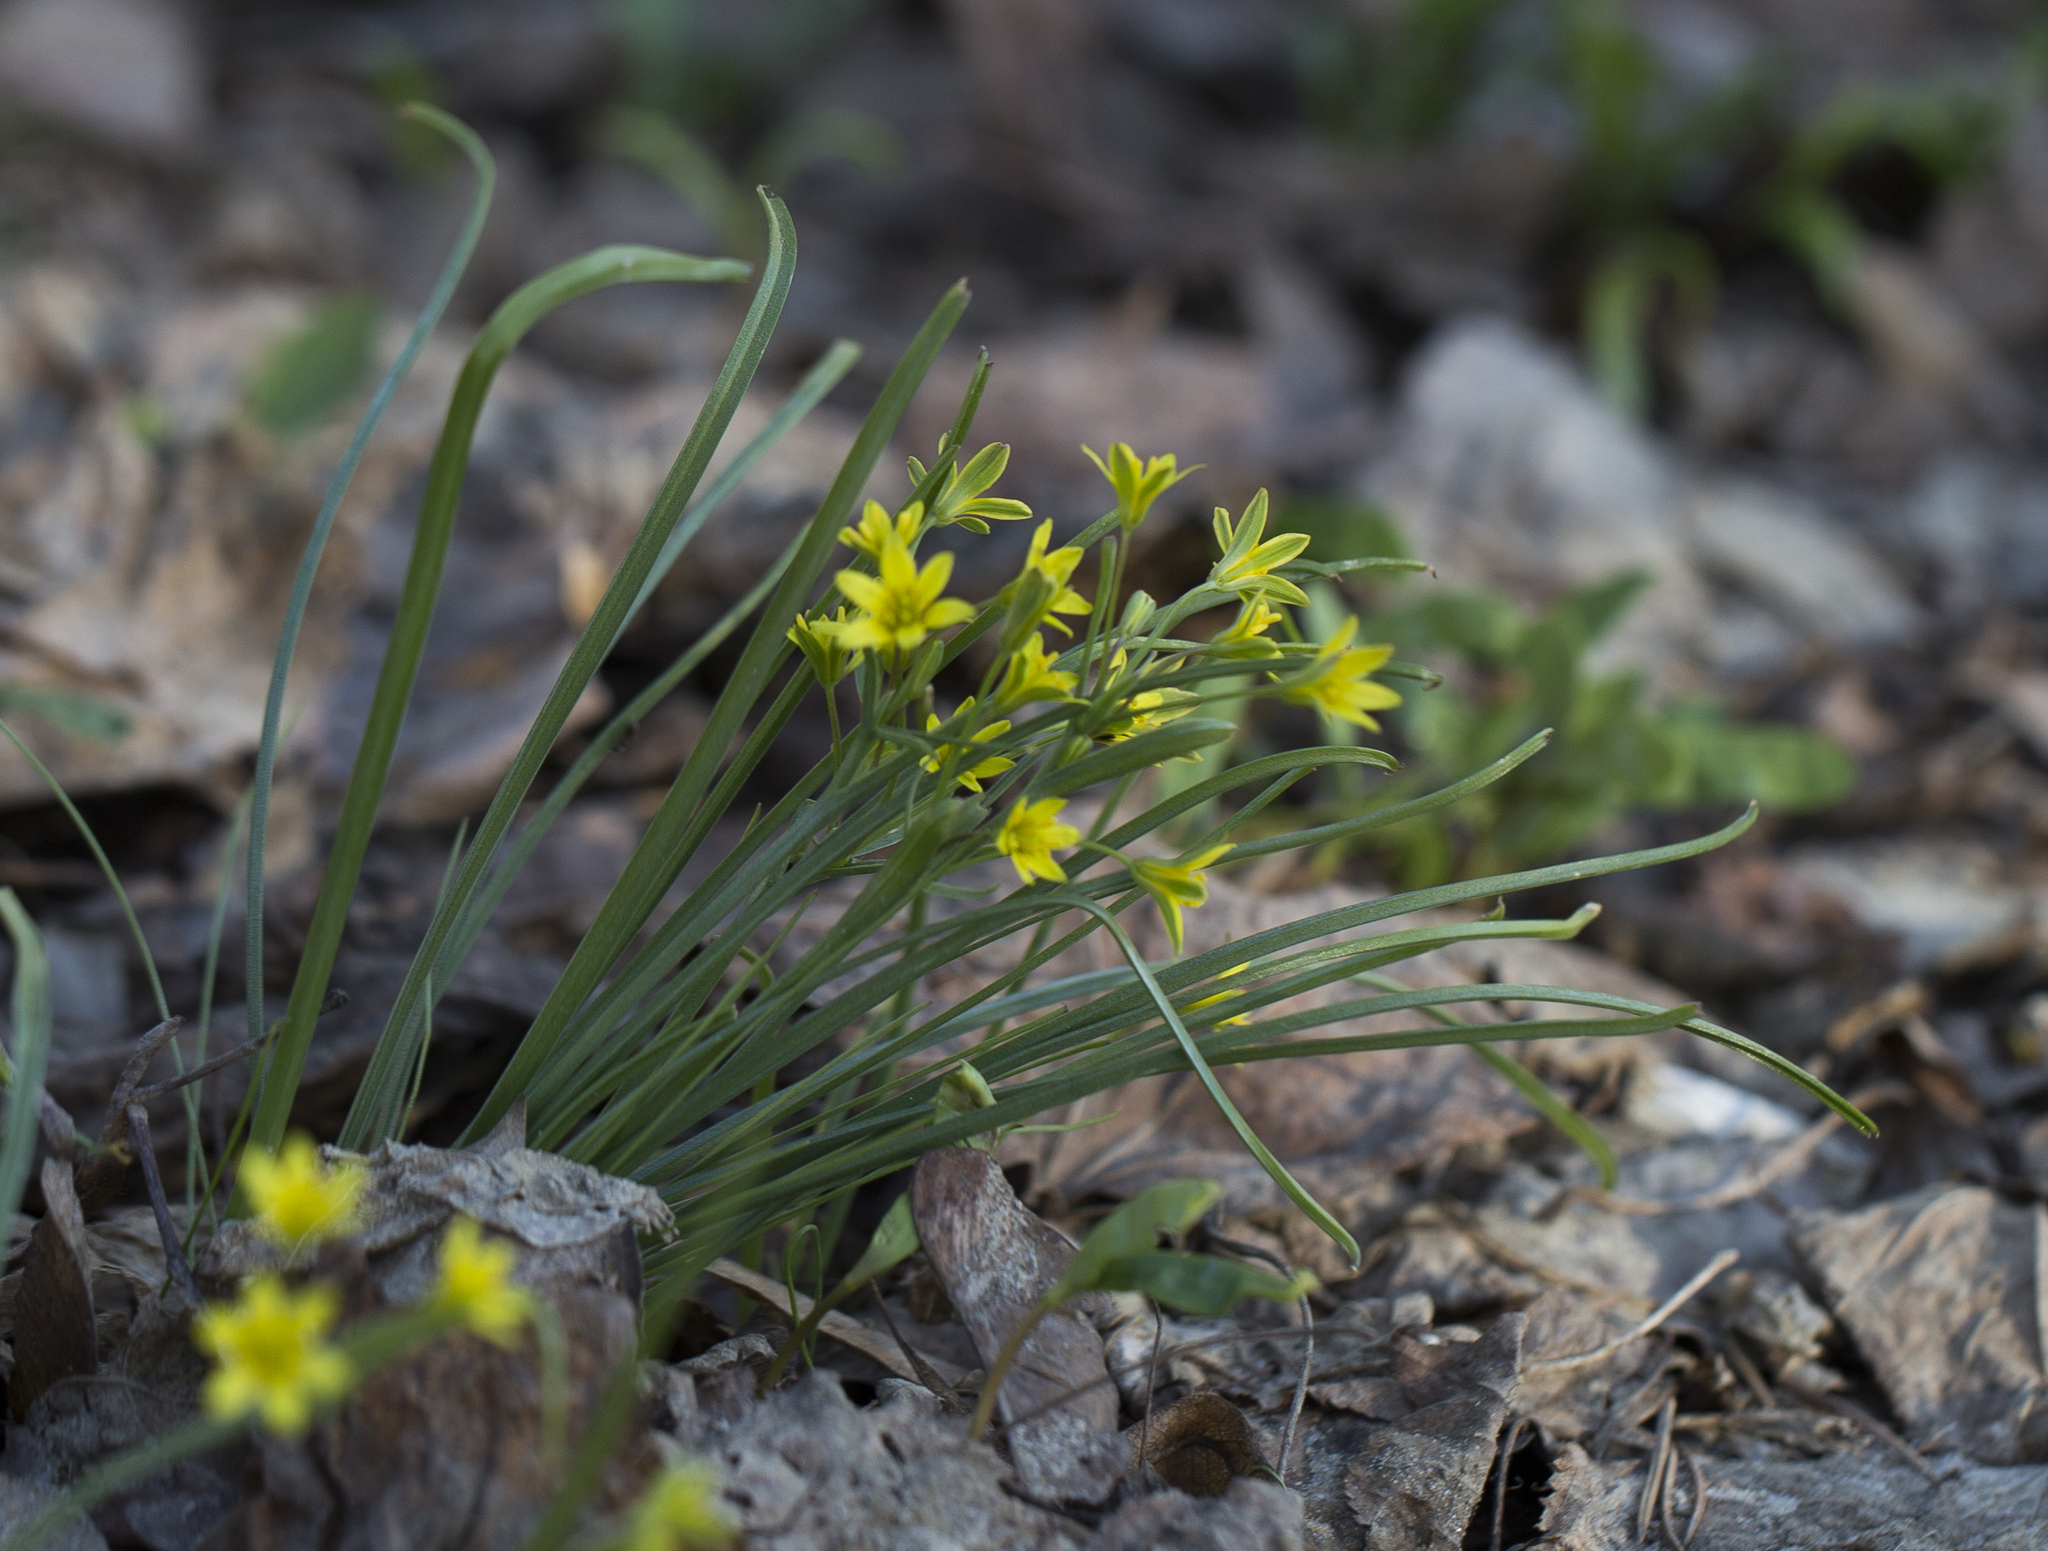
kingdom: Plantae
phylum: Tracheophyta
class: Liliopsida
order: Liliales
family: Liliaceae
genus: Gagea
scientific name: Gagea lutea
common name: Yellow star-of-bethlehem
